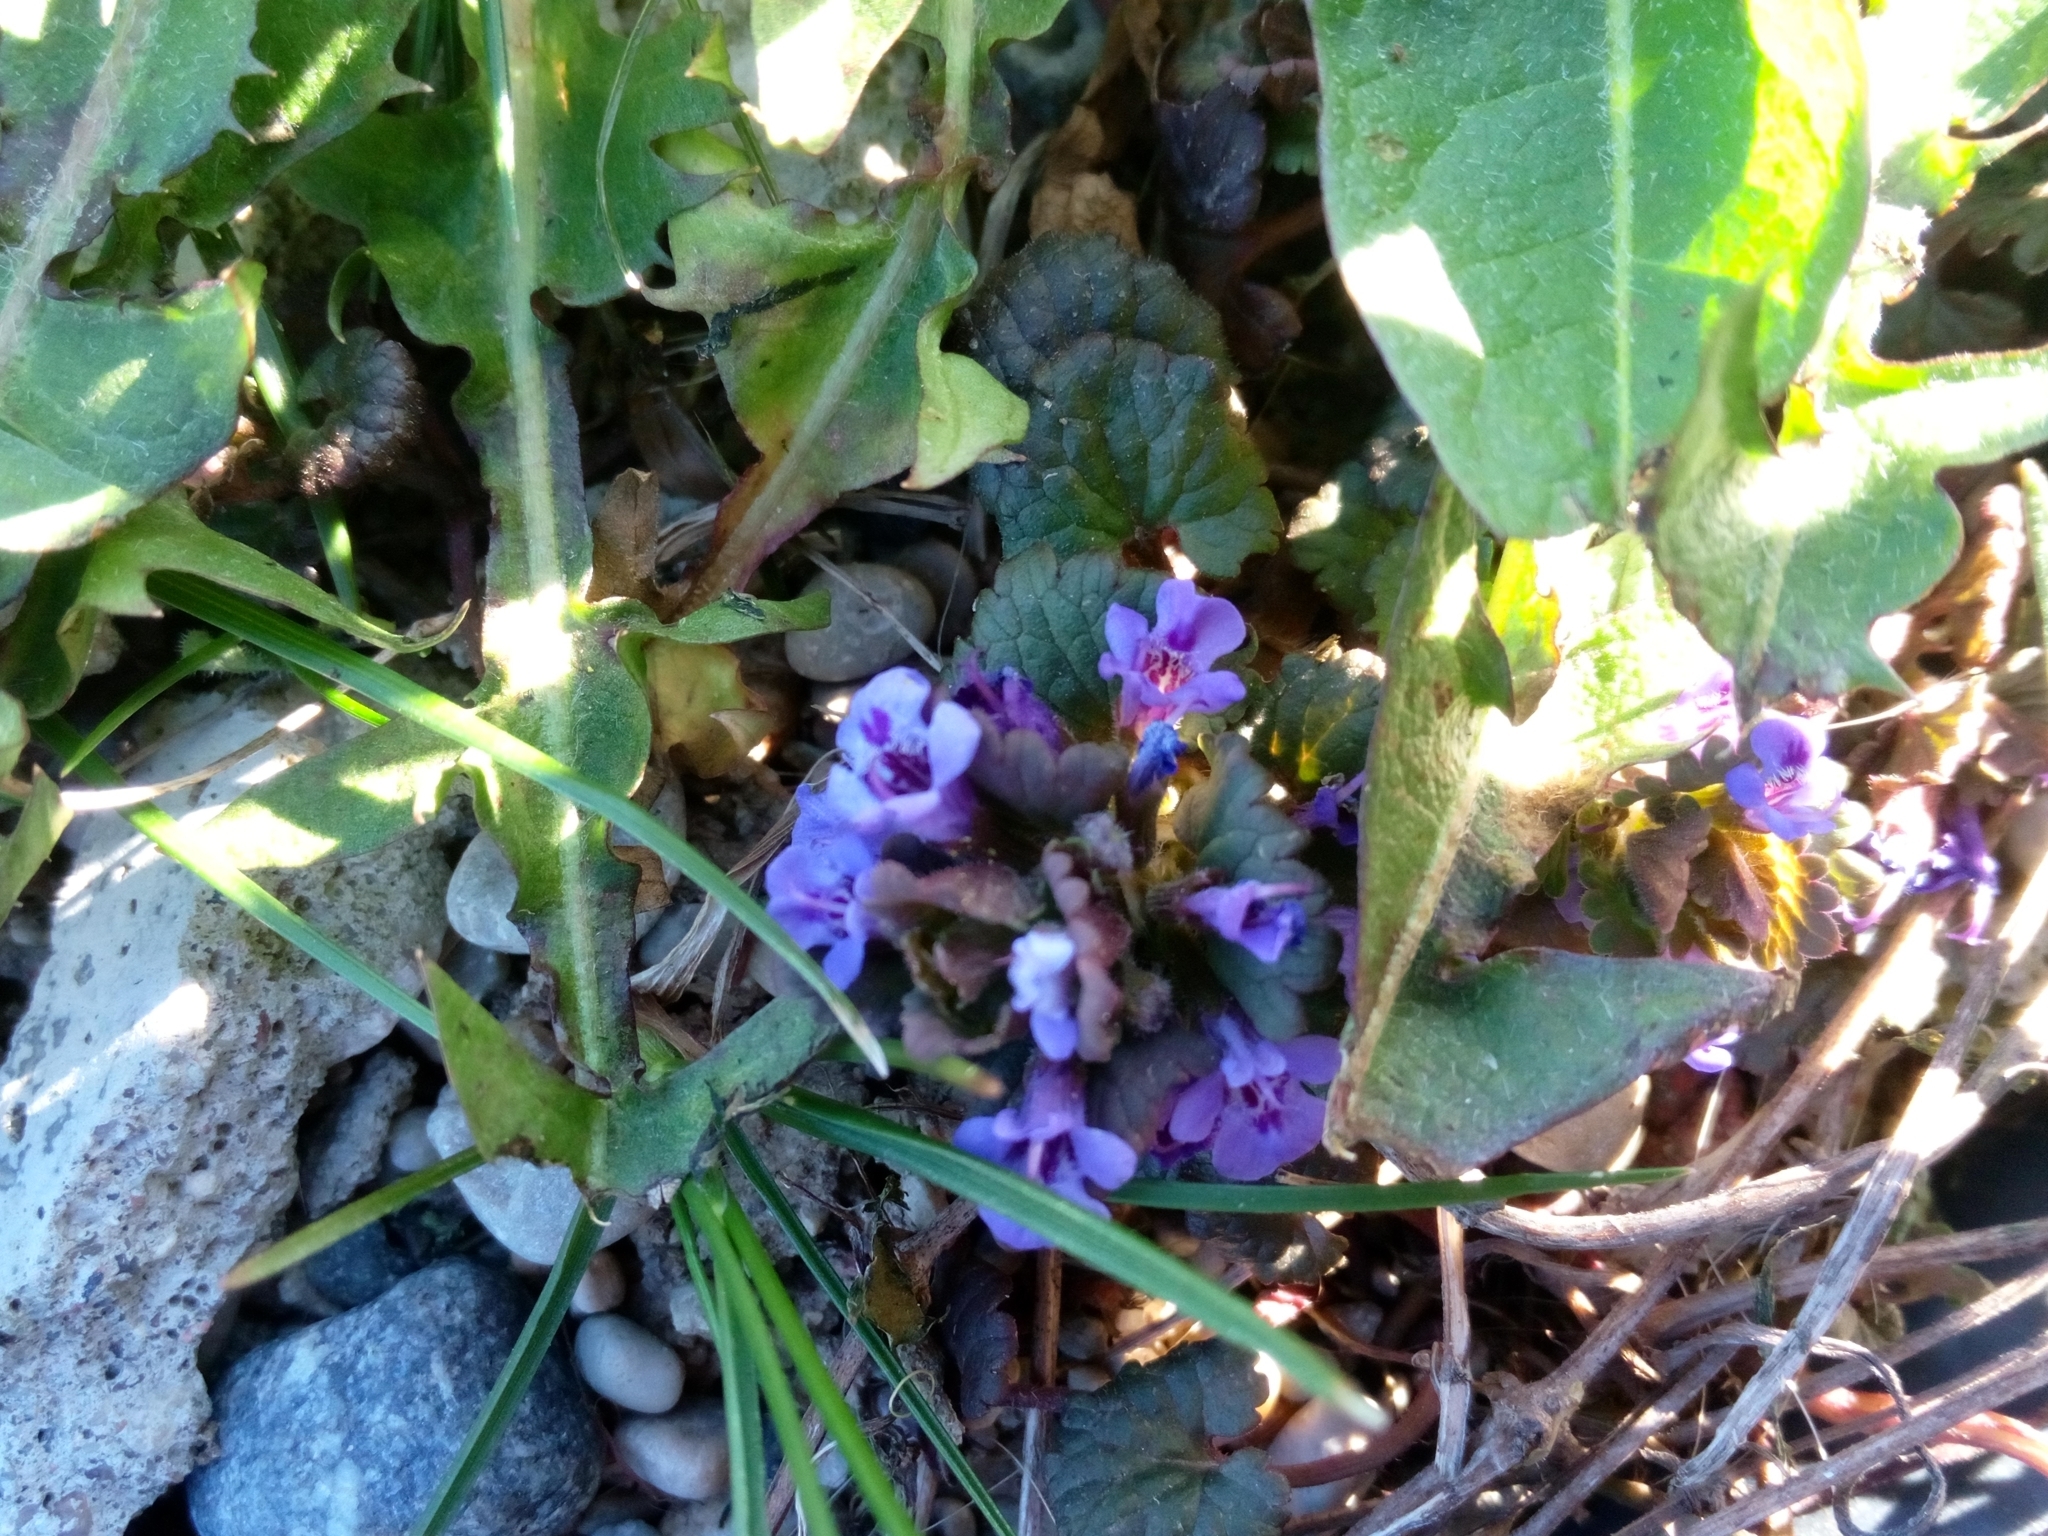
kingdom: Plantae
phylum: Tracheophyta
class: Magnoliopsida
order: Lamiales
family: Lamiaceae
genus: Glechoma
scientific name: Glechoma hederacea
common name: Ground ivy
